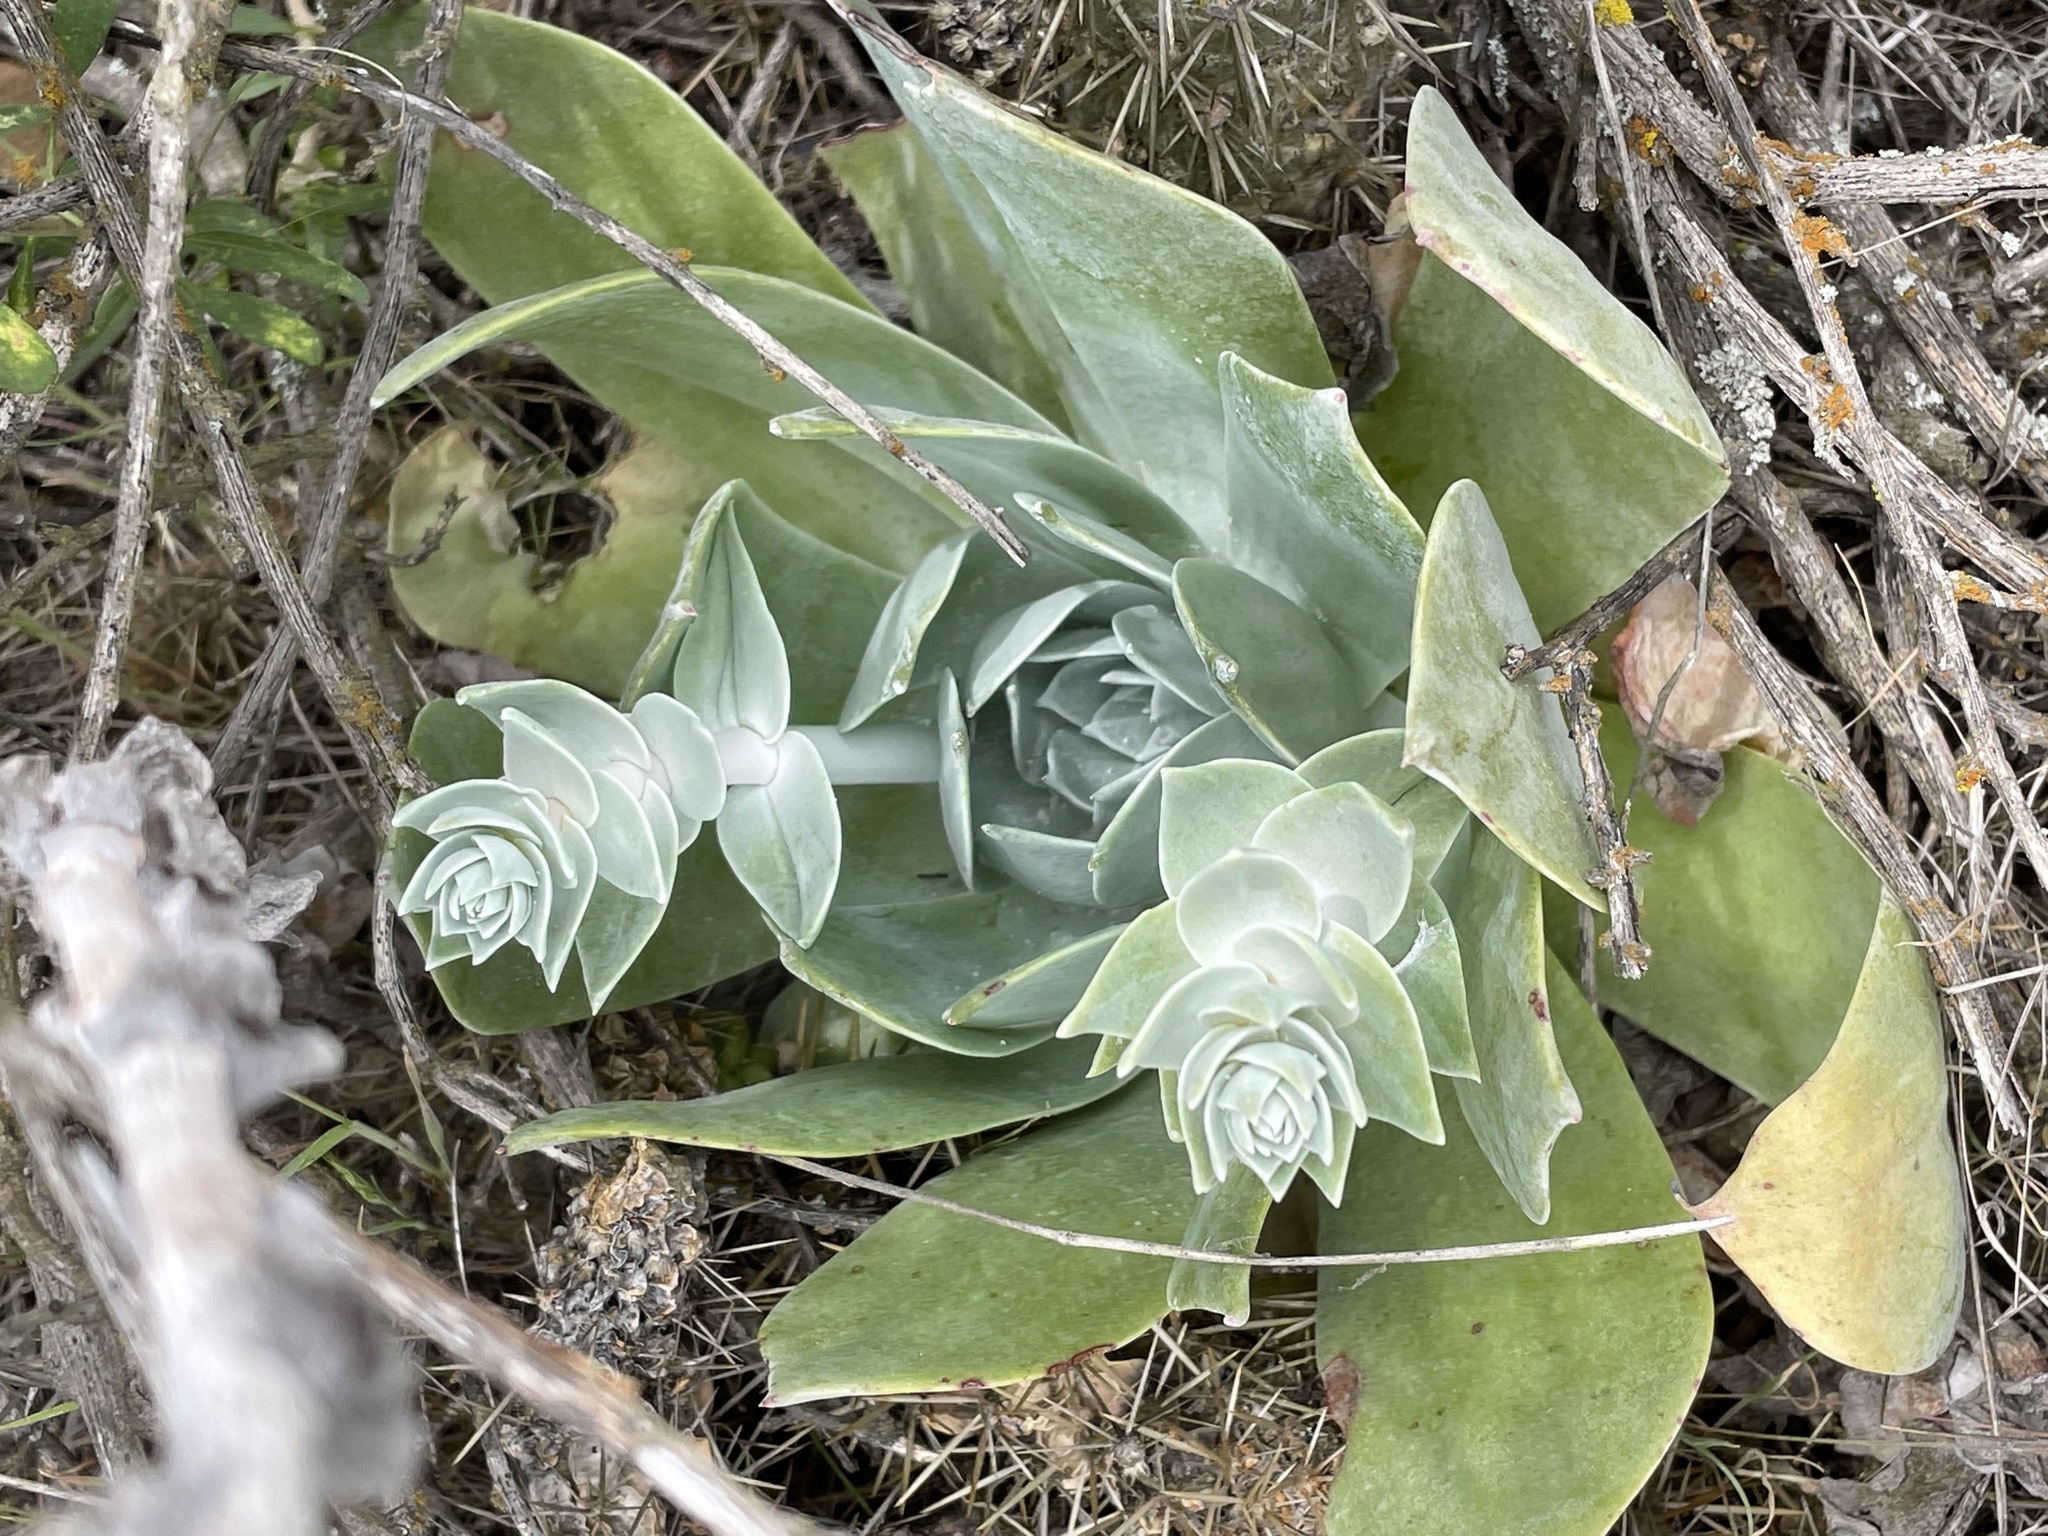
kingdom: Plantae
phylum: Tracheophyta
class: Magnoliopsida
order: Saxifragales
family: Crassulaceae
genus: Dudleya
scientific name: Dudleya pulverulenta
